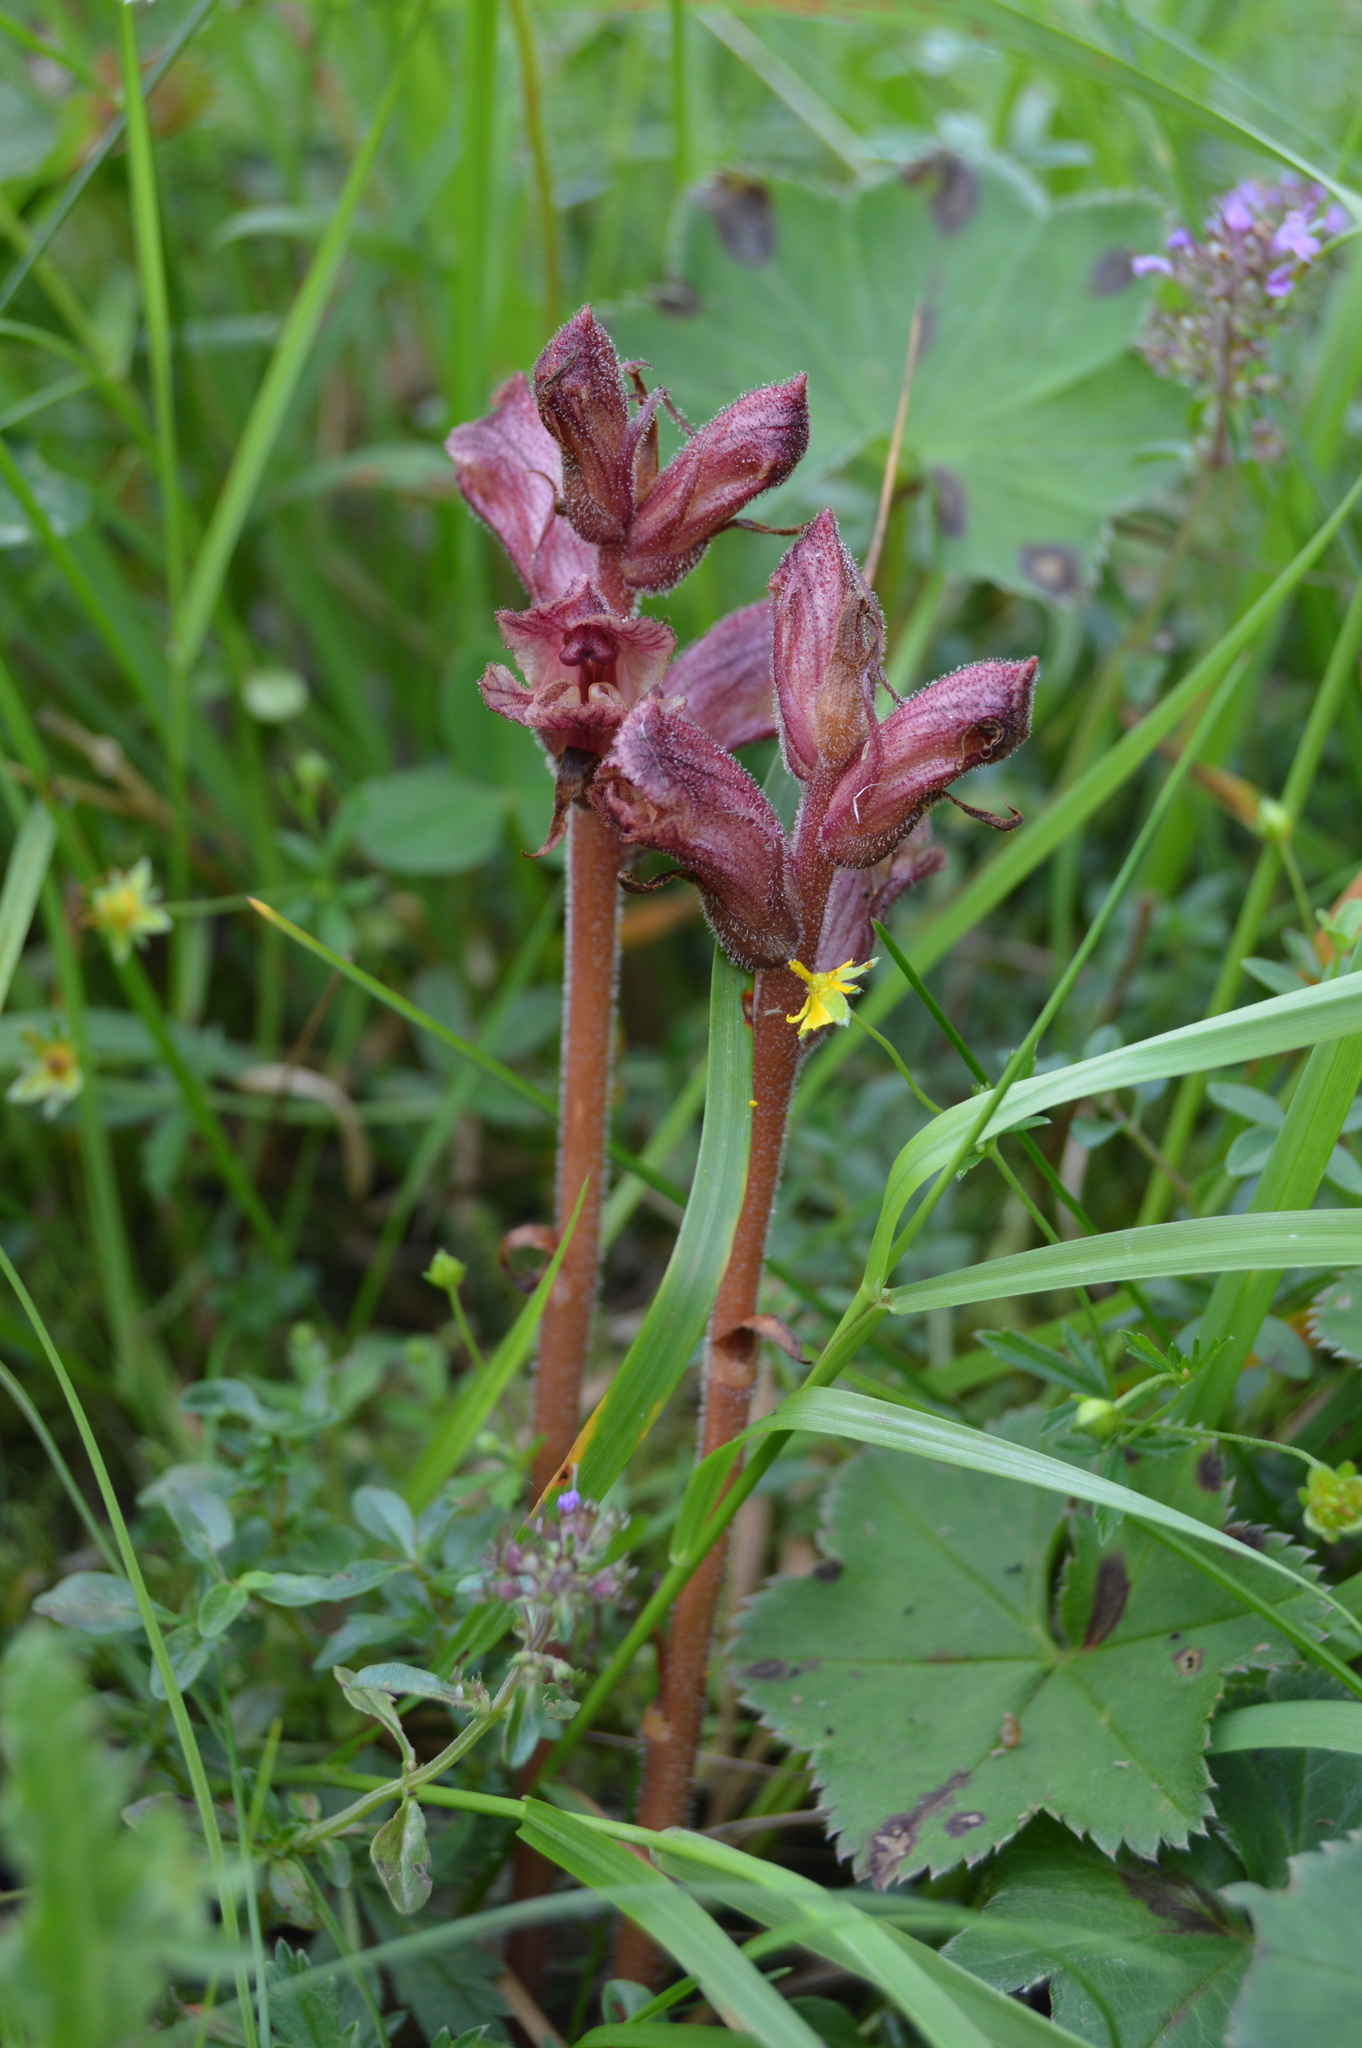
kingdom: Plantae
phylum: Tracheophyta
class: Magnoliopsida
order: Lamiales
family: Orobanchaceae
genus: Orobanche
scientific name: Orobanche alba
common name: Thyme broomrape
